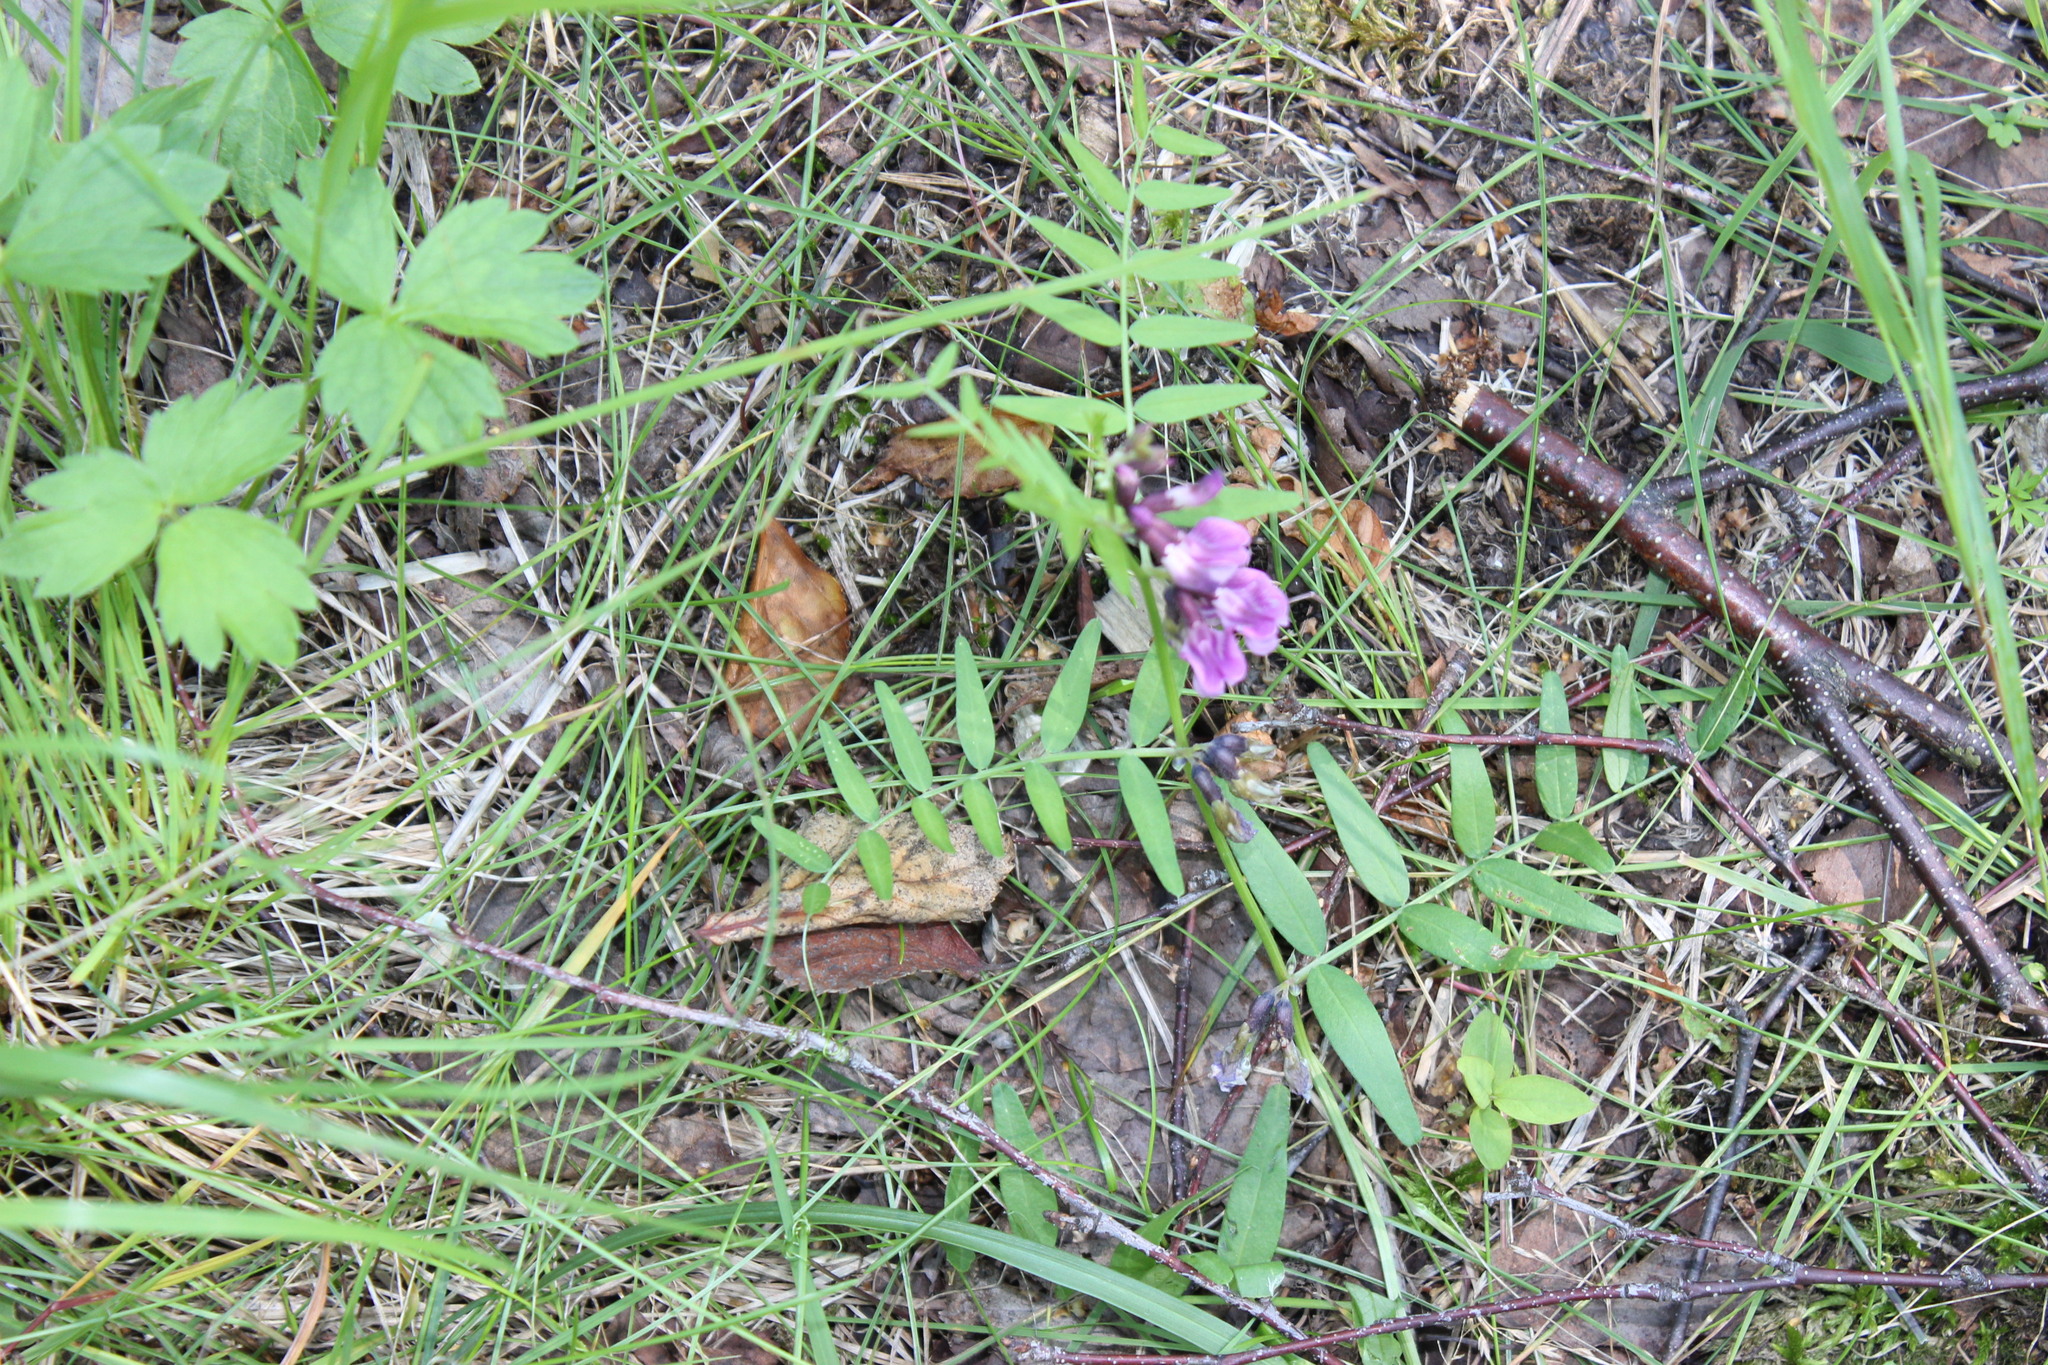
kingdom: Plantae
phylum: Tracheophyta
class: Magnoliopsida
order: Fabales
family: Fabaceae
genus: Vicia
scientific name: Vicia sepium
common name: Bush vetch
